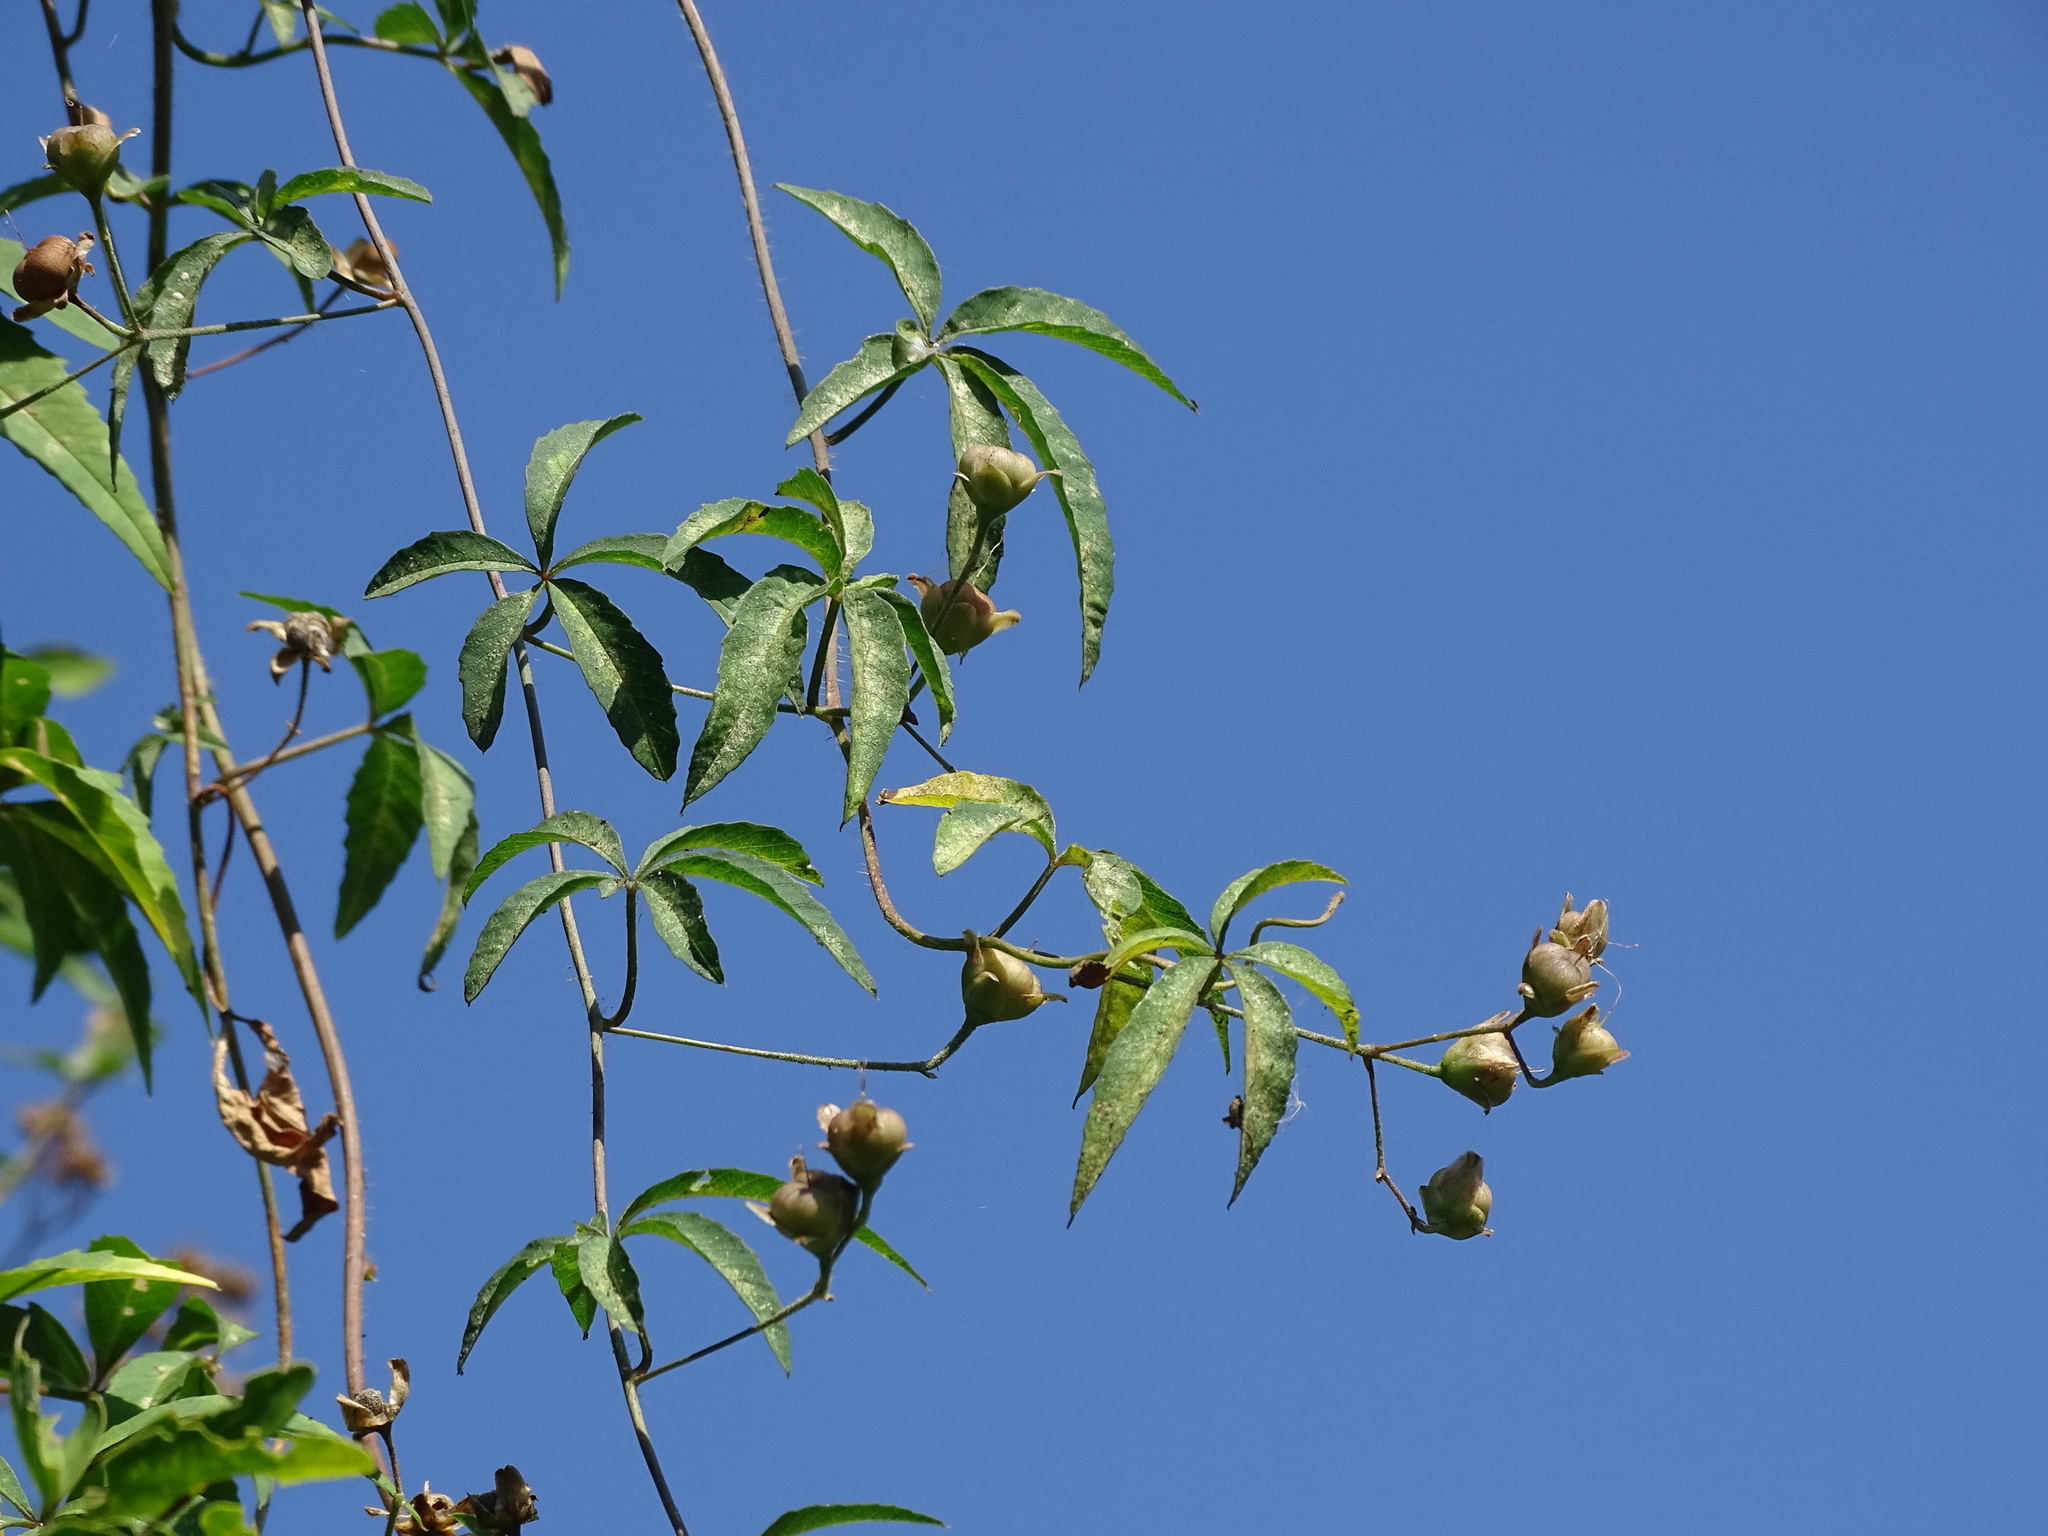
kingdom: Plantae
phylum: Tracheophyta
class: Magnoliopsida
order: Solanales
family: Convolvulaceae
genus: Distimake
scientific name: Distimake quinquefolius
